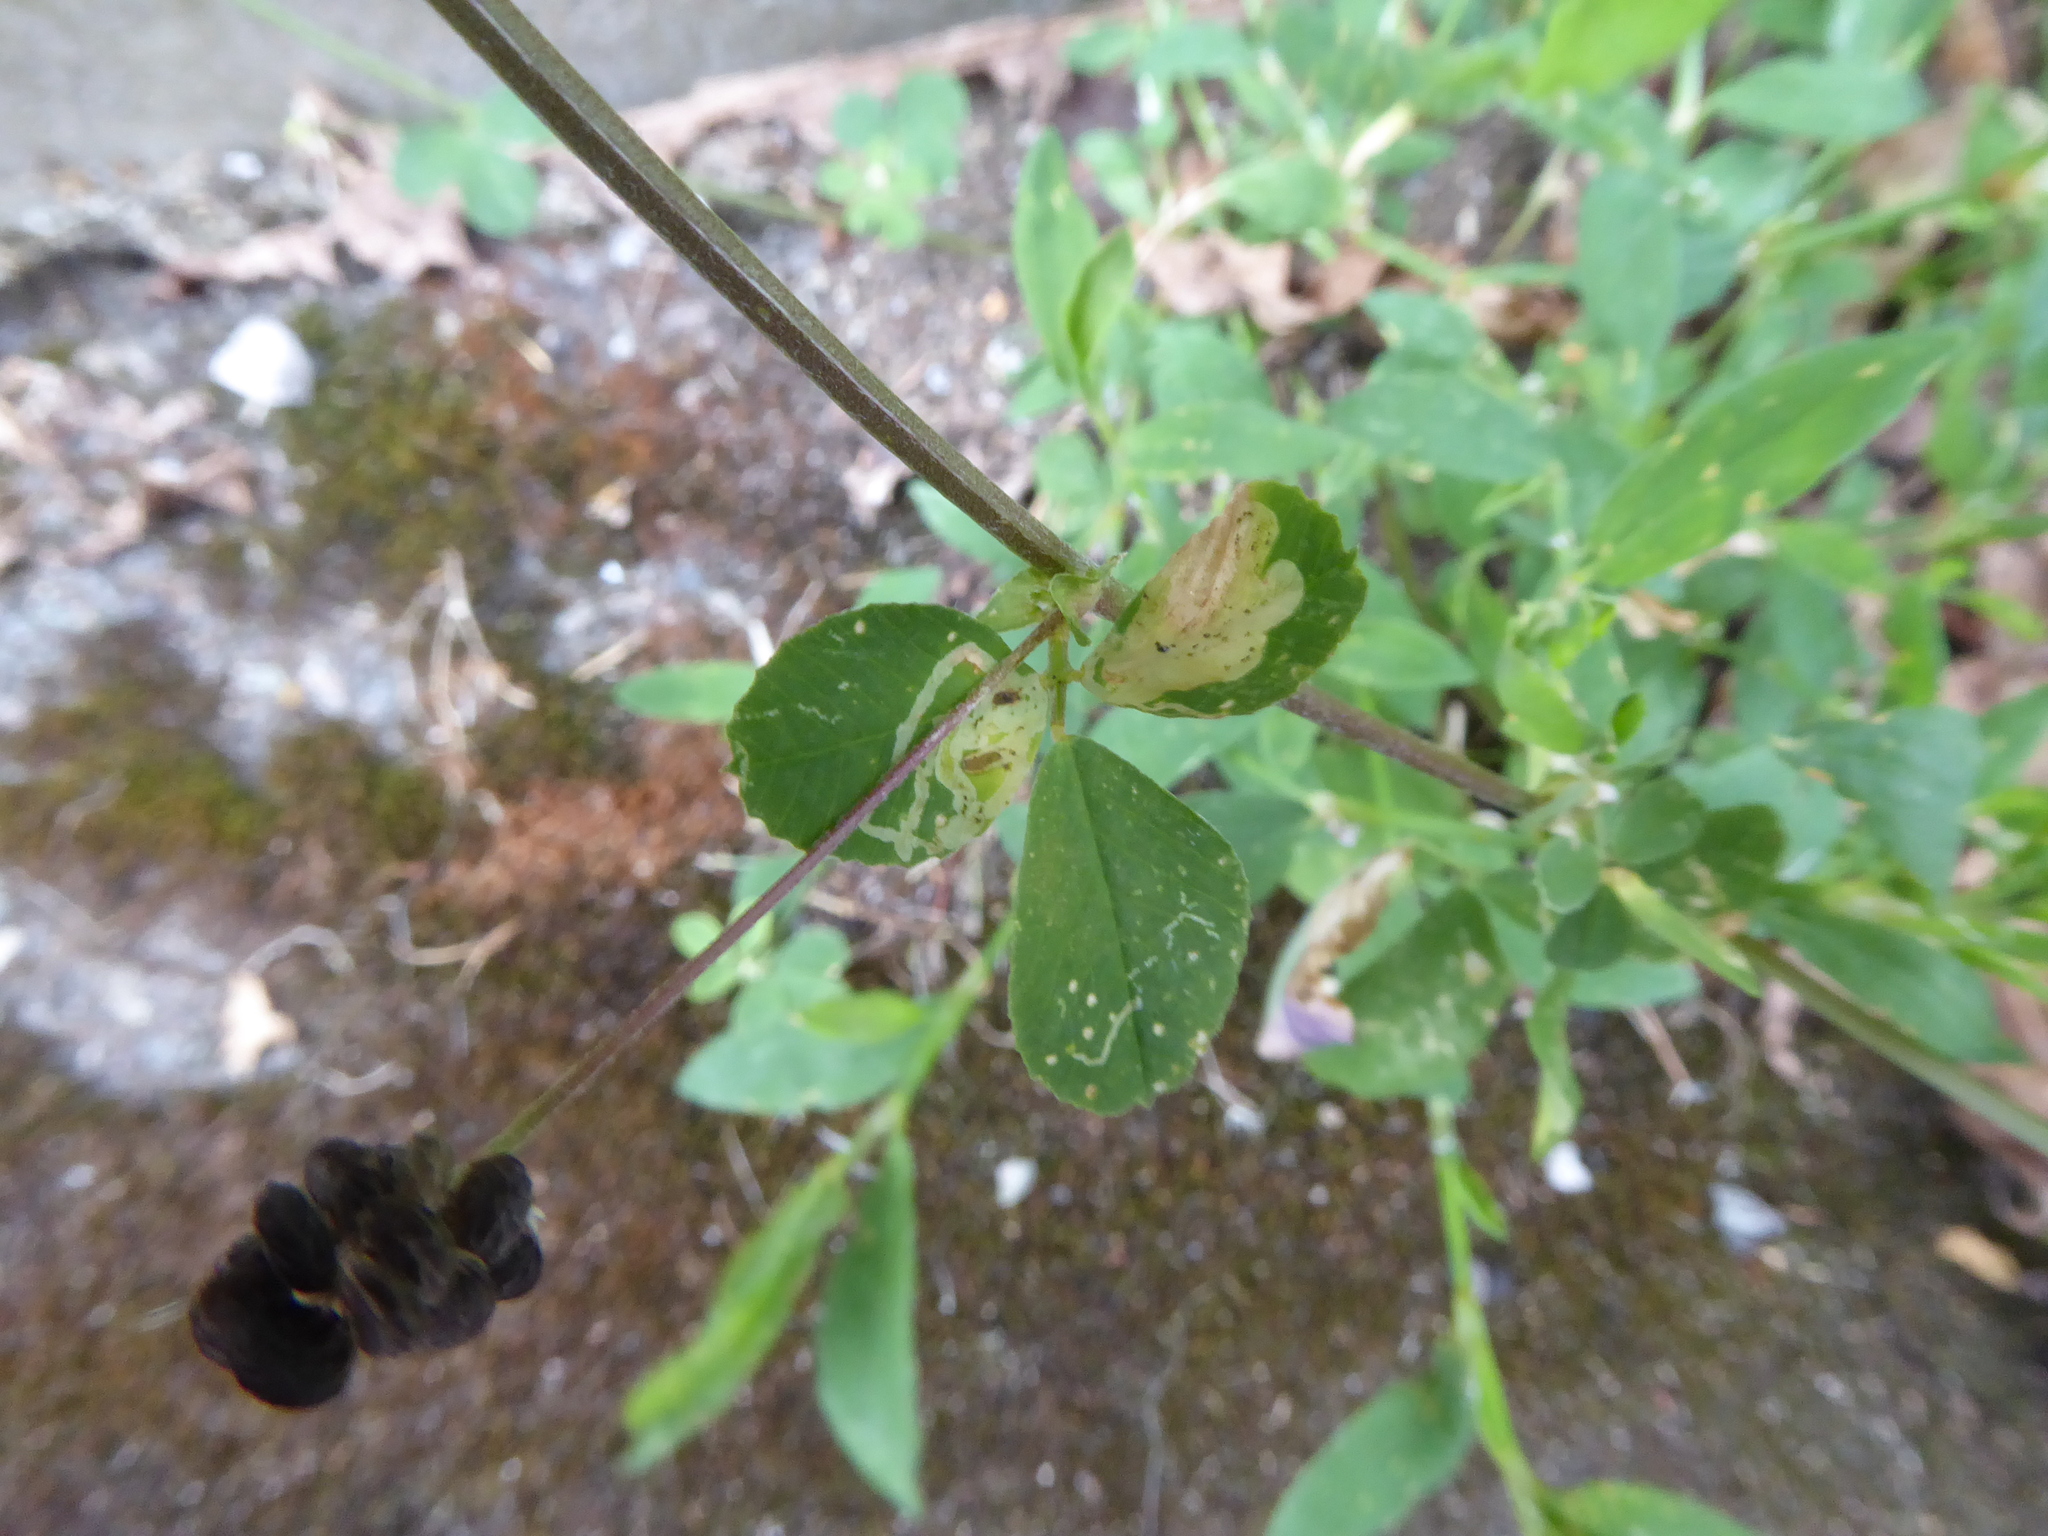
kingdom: Plantae
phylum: Tracheophyta
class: Magnoliopsida
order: Fabales
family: Fabaceae
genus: Medicago
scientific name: Medicago lupulina
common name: Black medick
